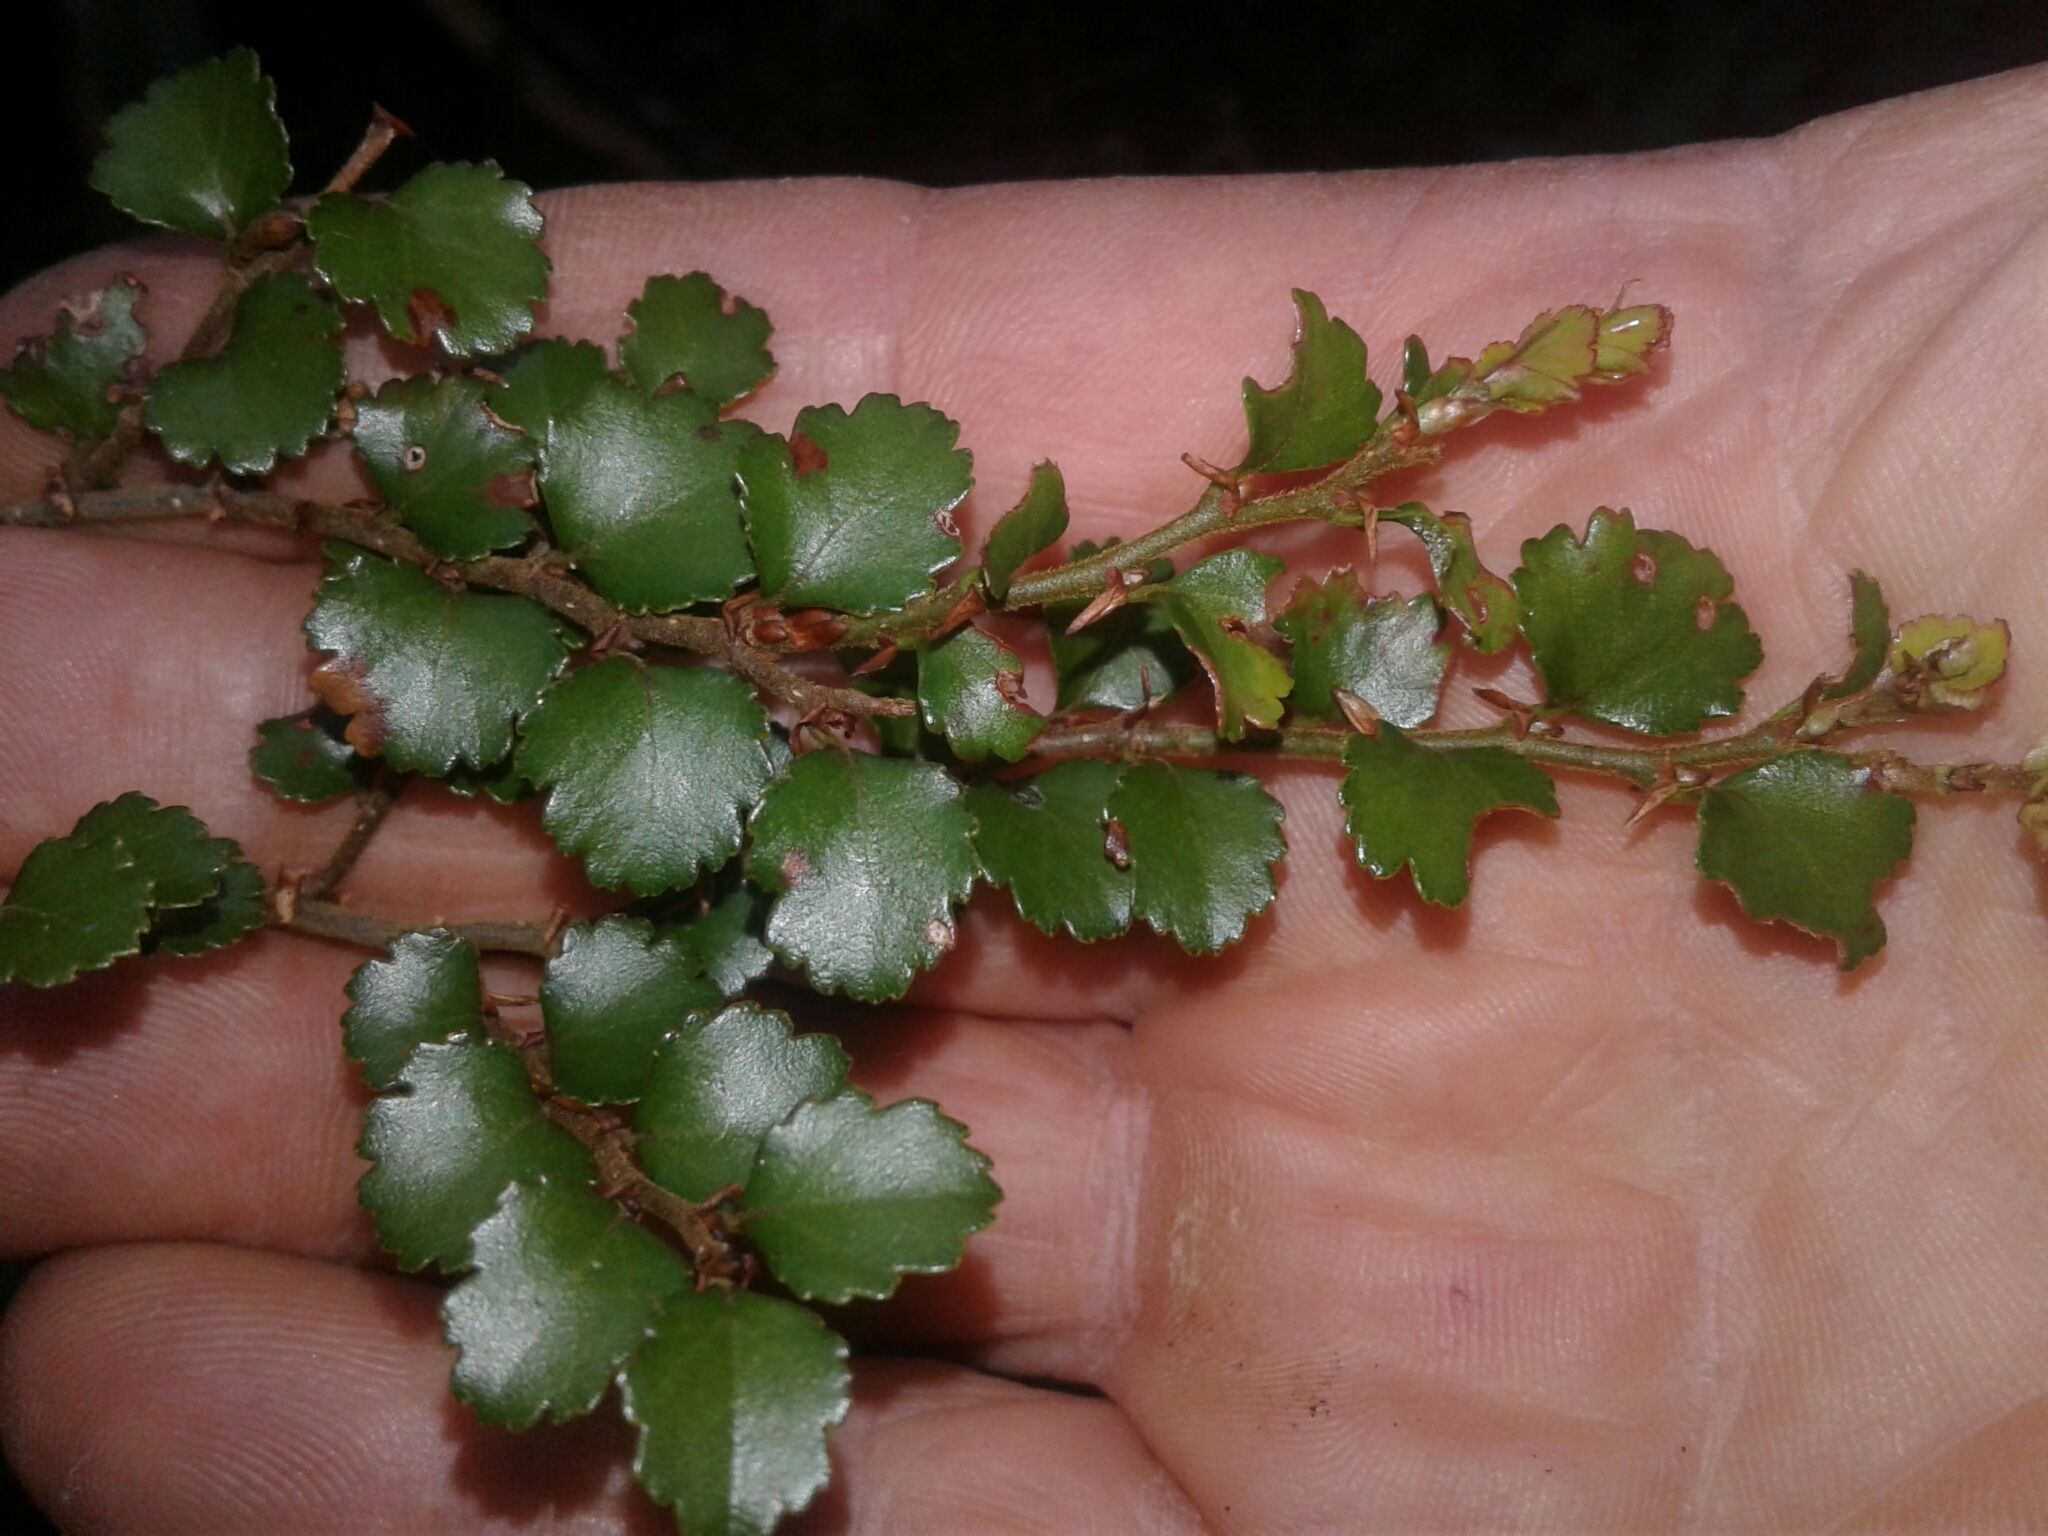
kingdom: Plantae
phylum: Tracheophyta
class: Magnoliopsida
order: Fagales
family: Nothofagaceae
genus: Nothofagus
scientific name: Nothofagus menziesii
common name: Silver beech
